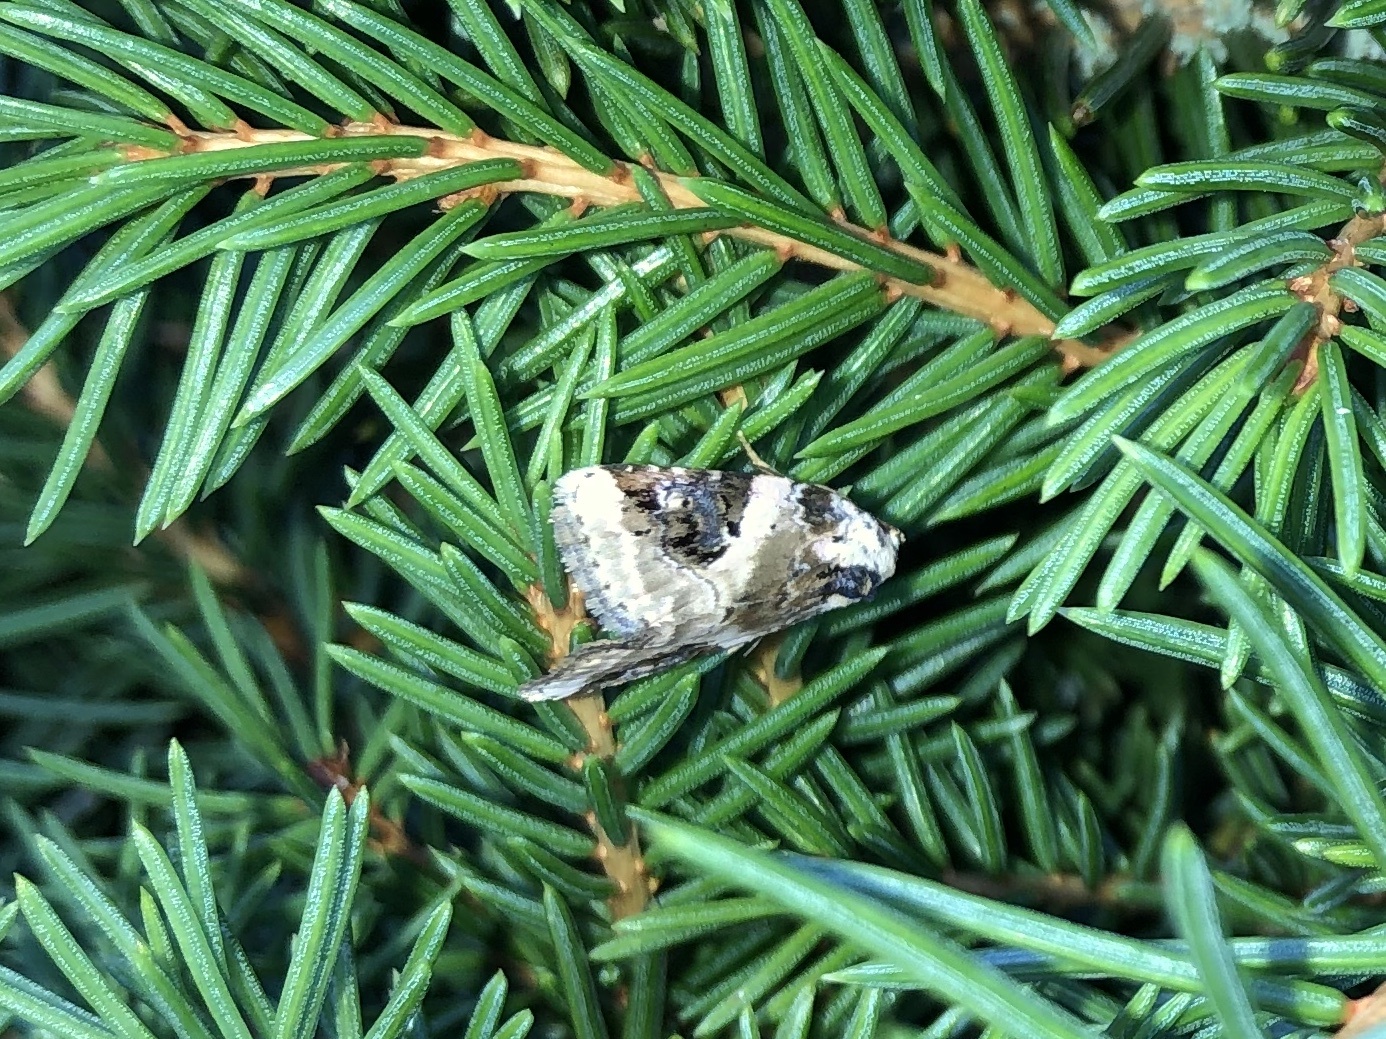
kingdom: Animalia
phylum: Arthropoda
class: Insecta
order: Lepidoptera
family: Noctuidae
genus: Pseudeustrotia
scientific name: Pseudeustrotia candidula
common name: Shining marbled
